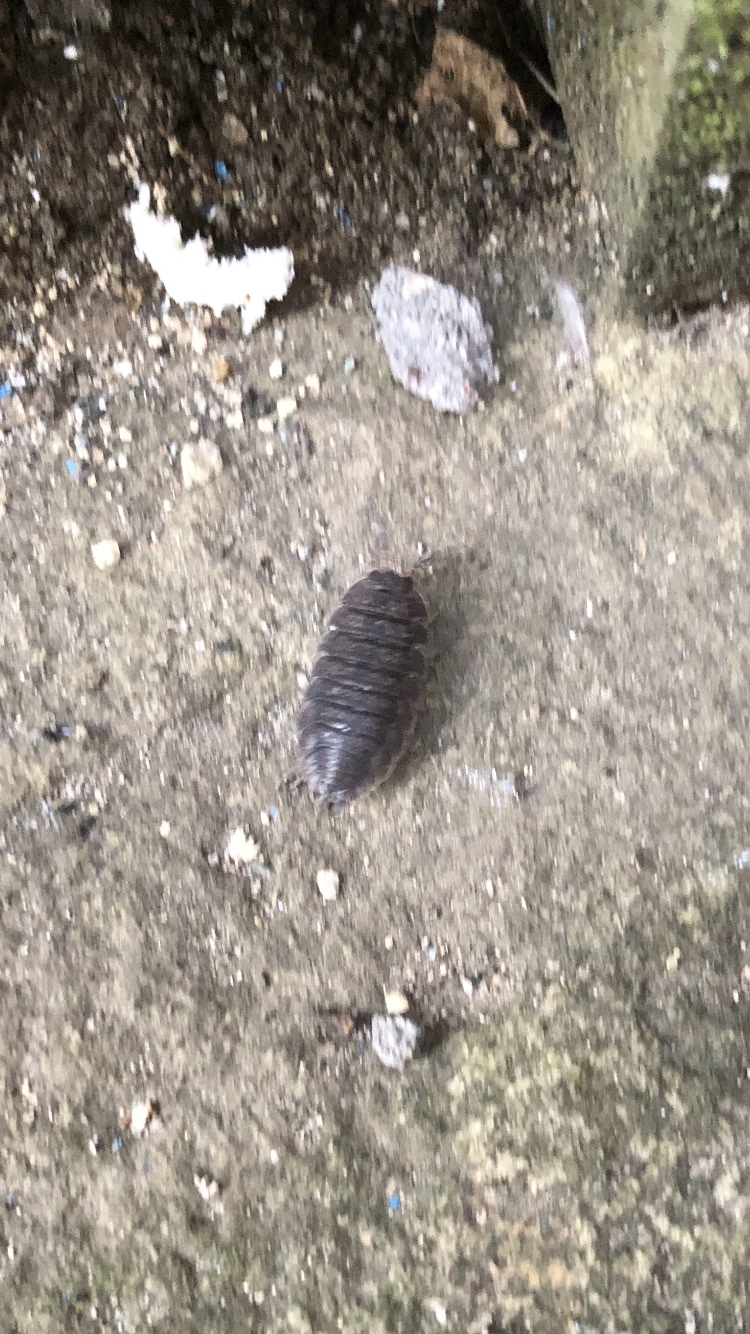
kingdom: Animalia
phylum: Arthropoda
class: Malacostraca
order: Isopoda
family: Porcellionidae
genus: Porcellio
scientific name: Porcellio scaber
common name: Common rough woodlouse
